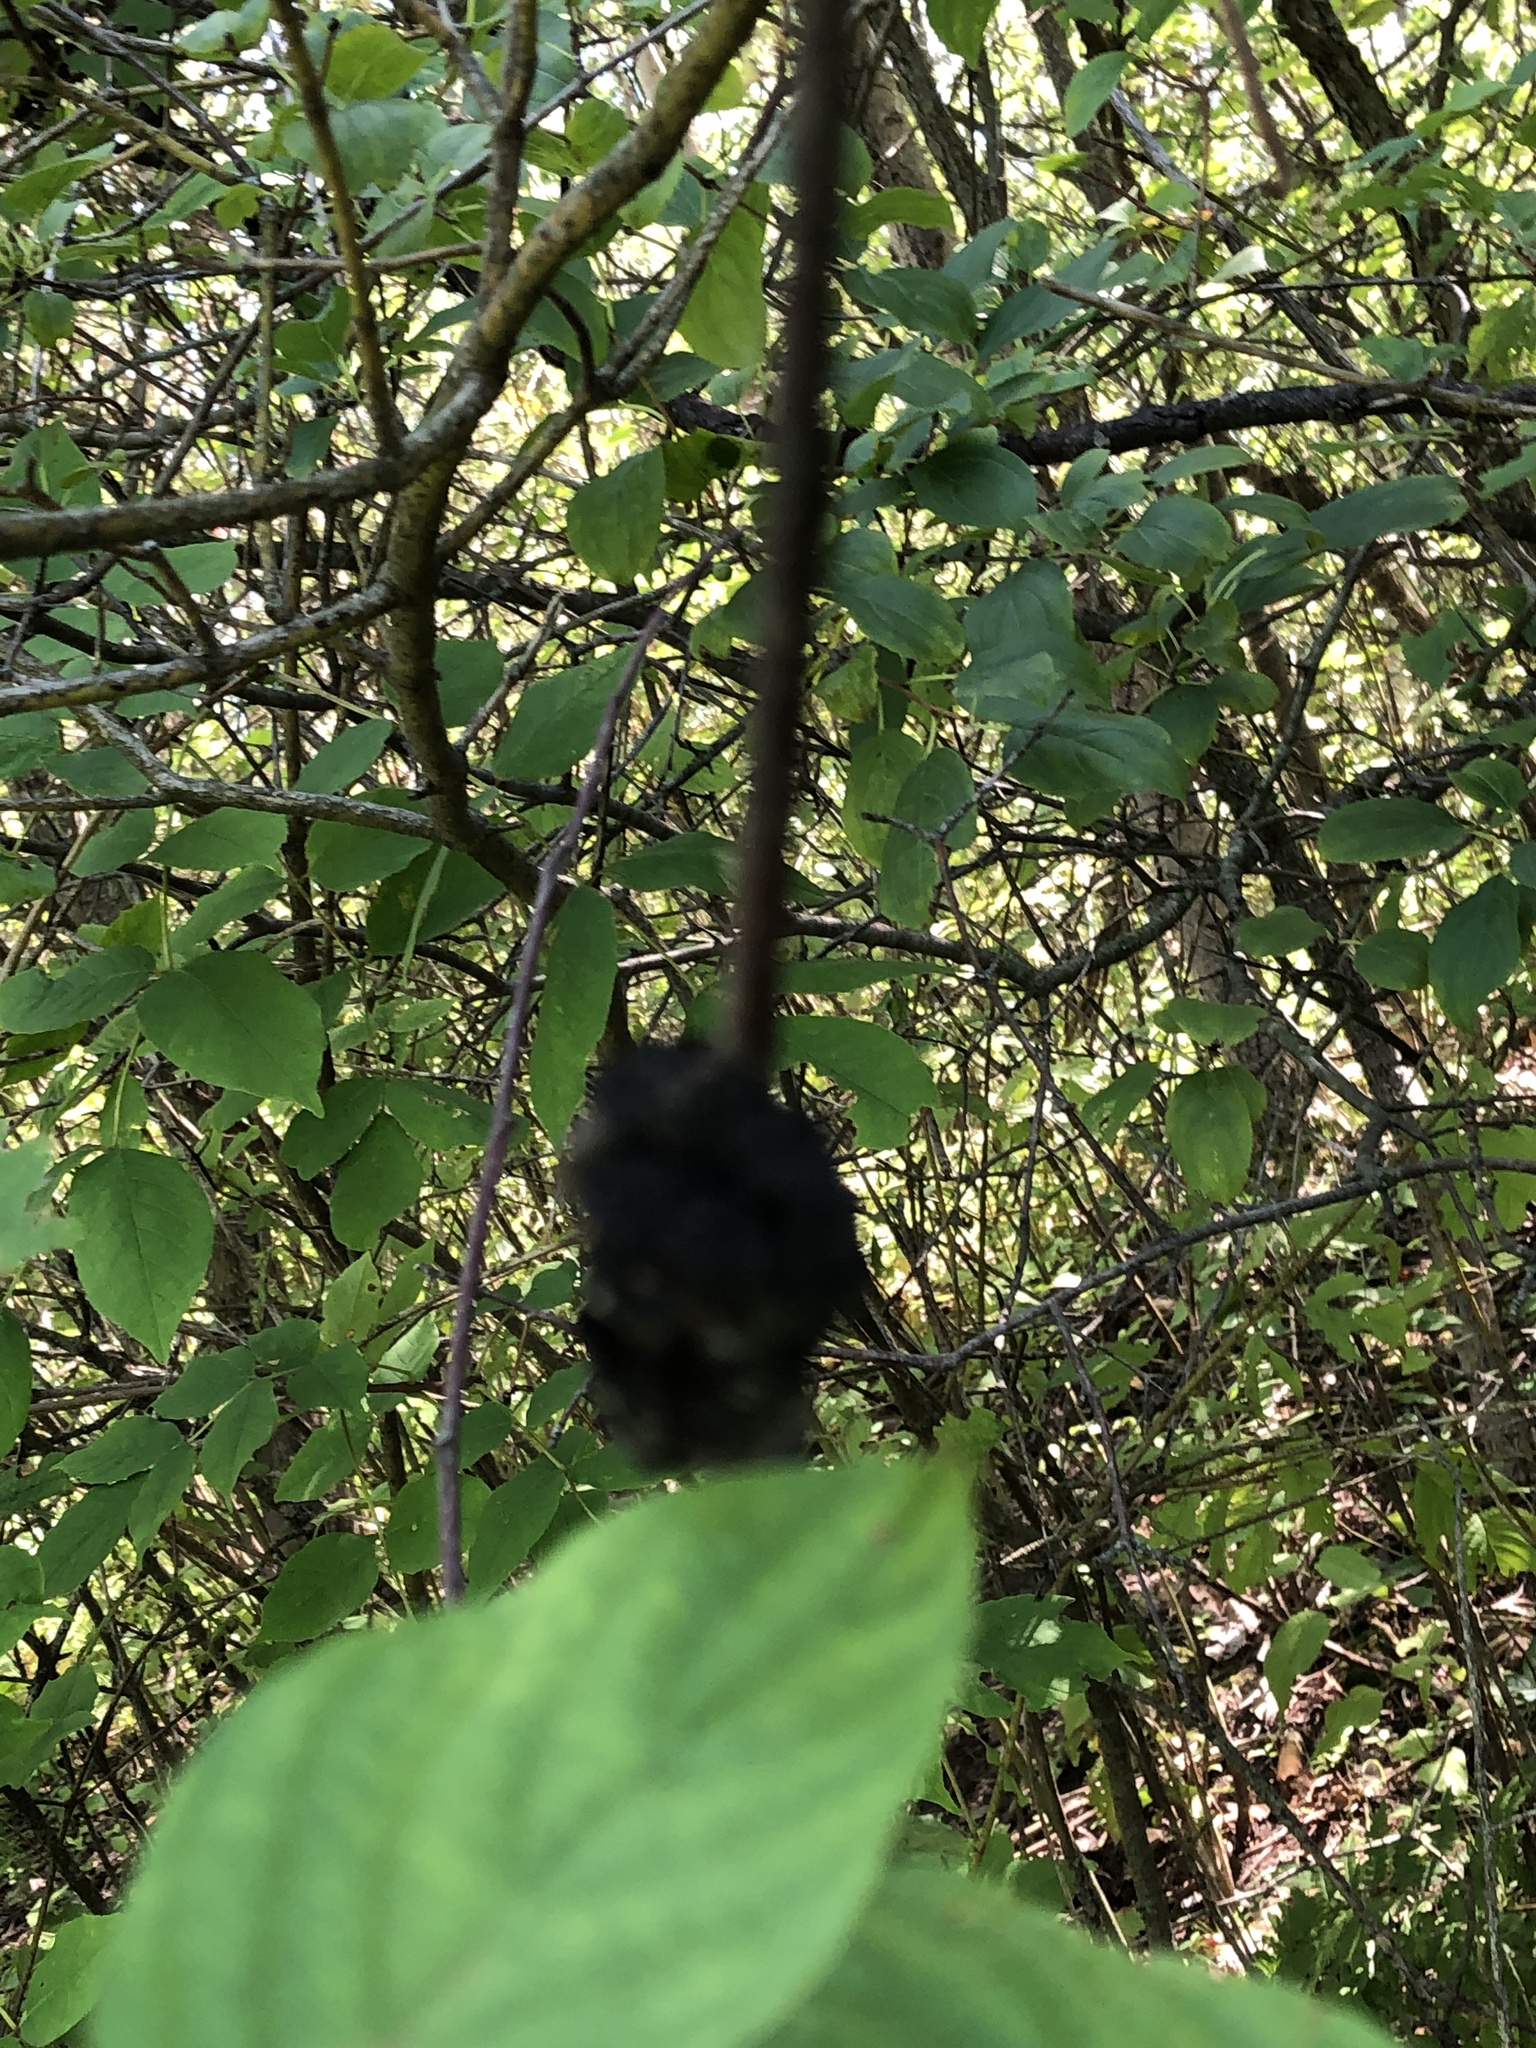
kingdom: Fungi
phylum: Ascomycota
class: Dothideomycetes
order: Venturiales
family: Venturiaceae
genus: Apiosporina
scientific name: Apiosporina morbosa
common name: Black knot
